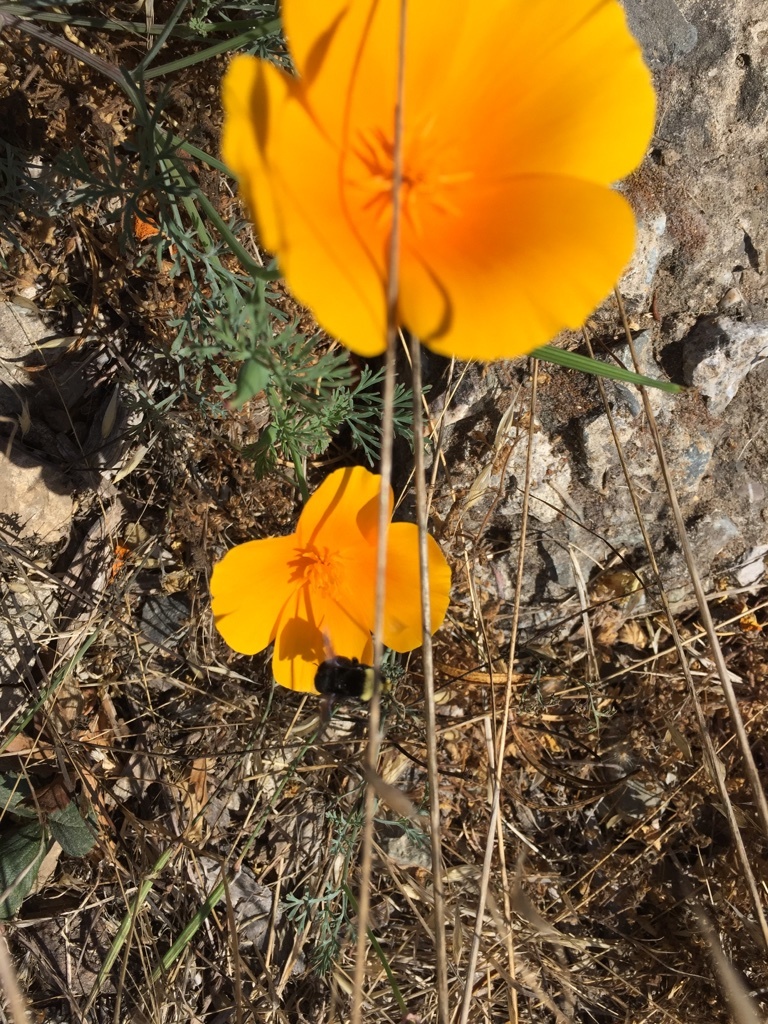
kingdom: Plantae
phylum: Tracheophyta
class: Magnoliopsida
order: Ranunculales
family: Papaveraceae
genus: Eschscholzia
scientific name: Eschscholzia californica
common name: California poppy
